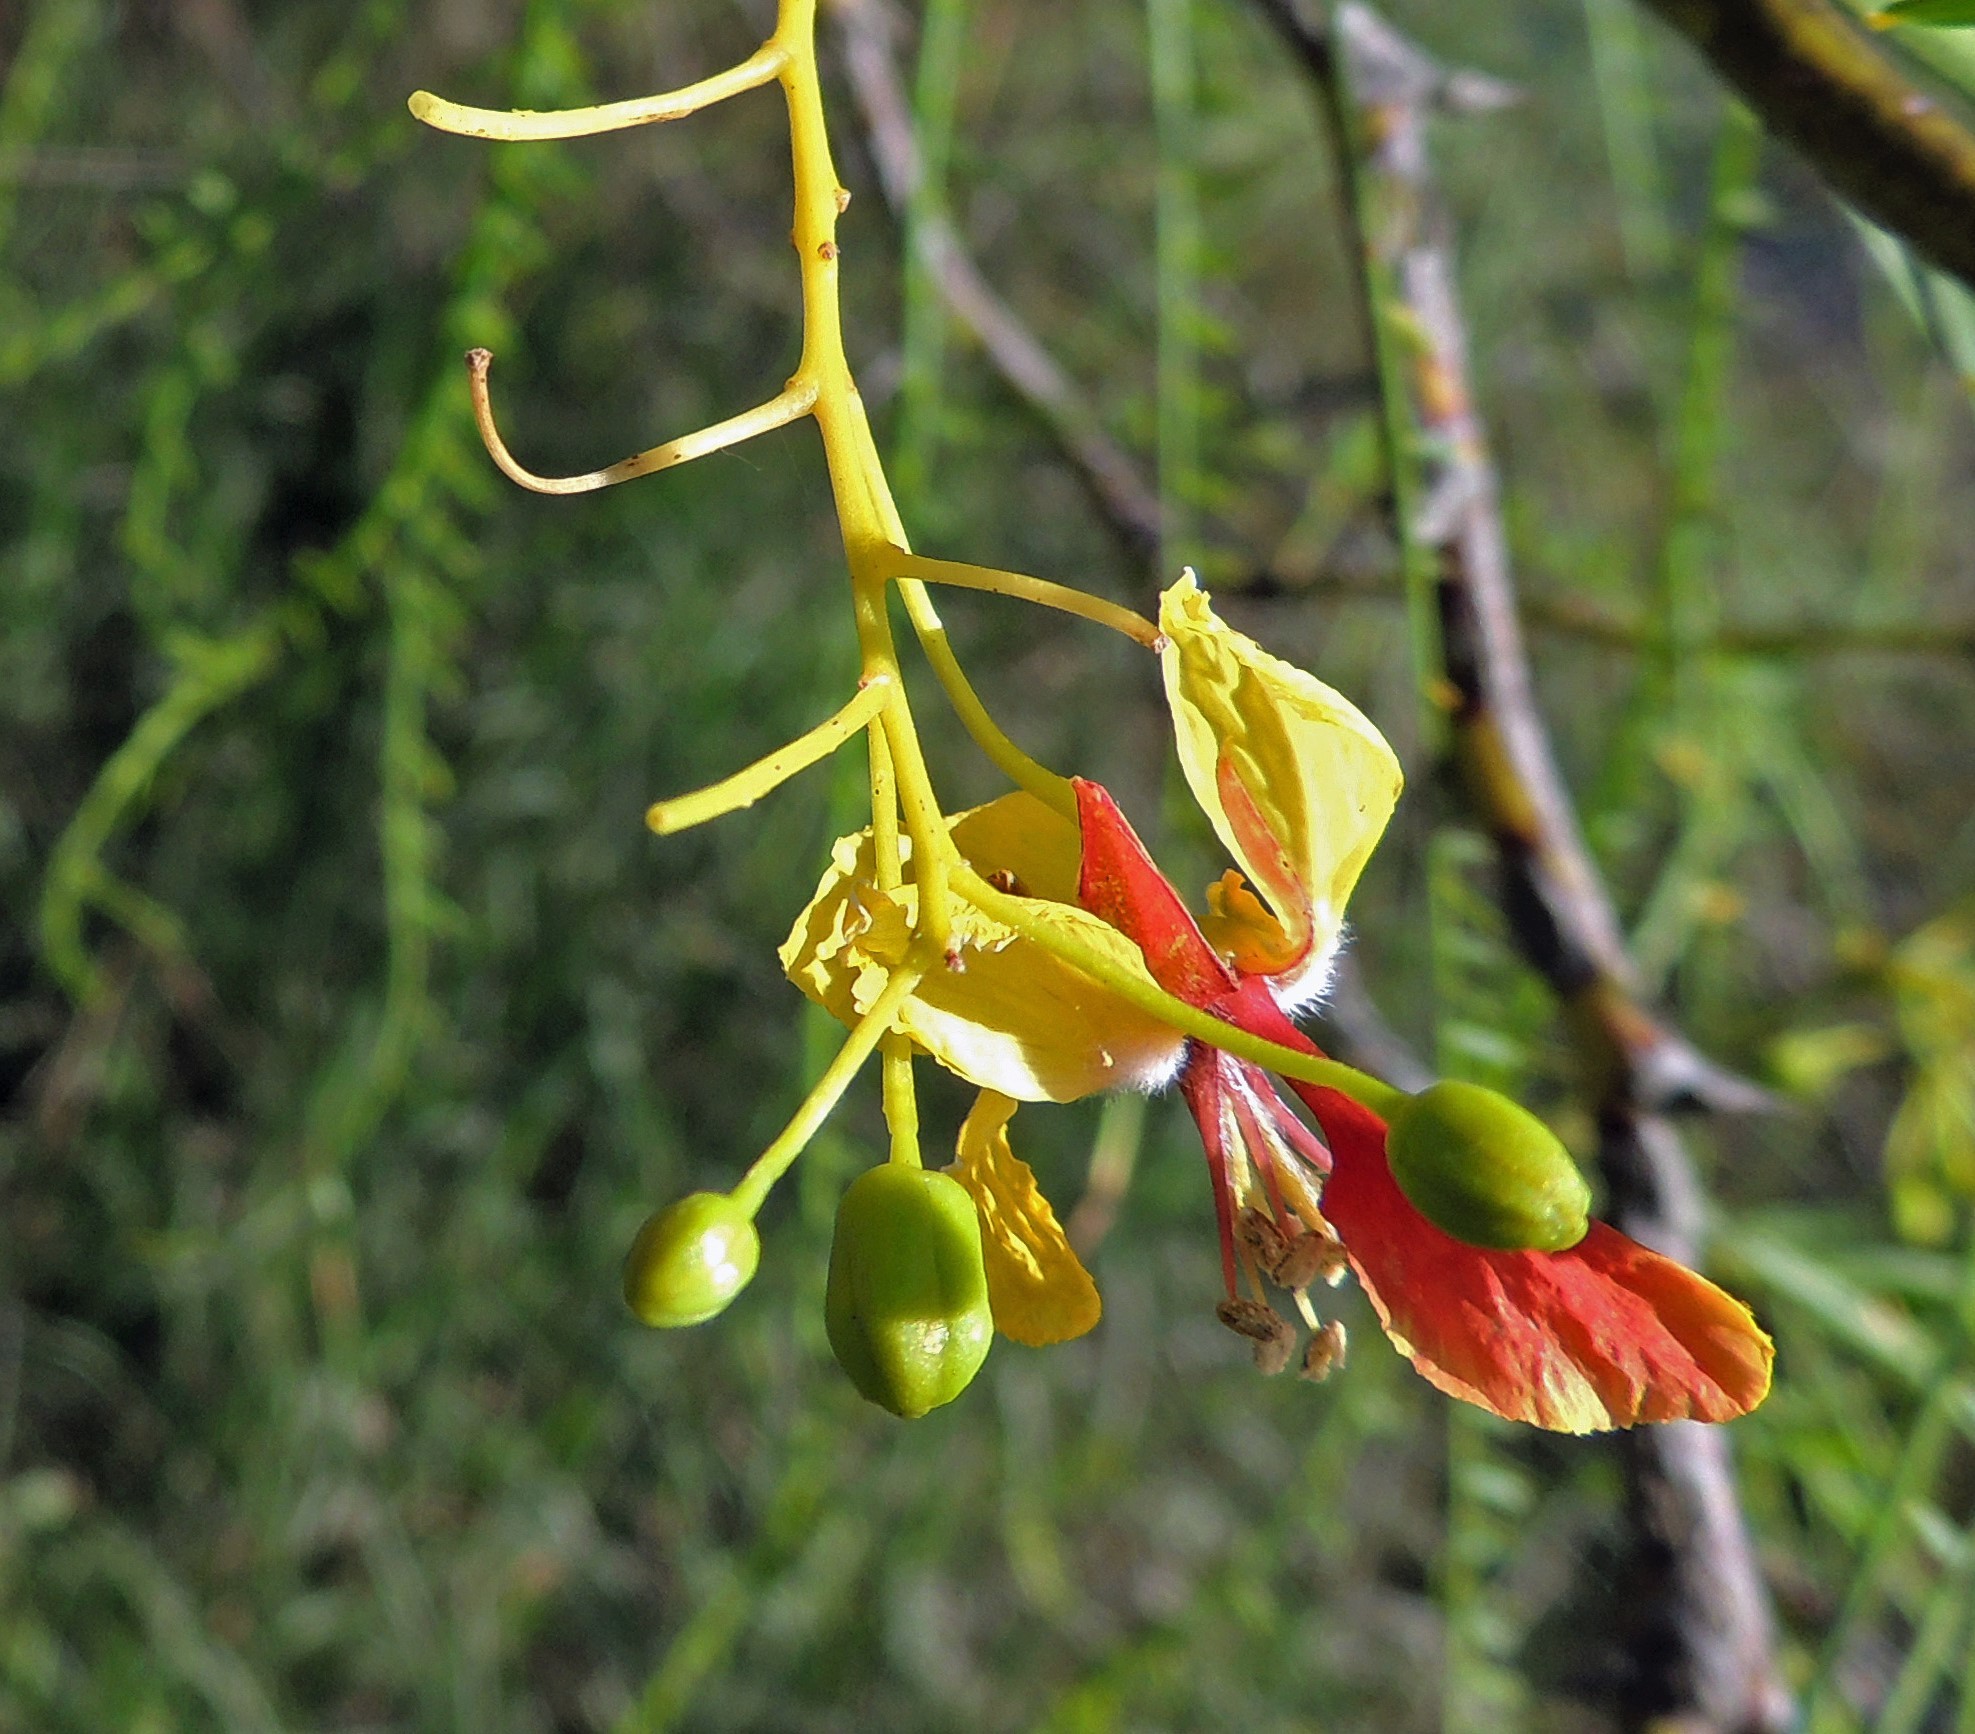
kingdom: Plantae
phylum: Tracheophyta
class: Magnoliopsida
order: Fabales
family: Fabaceae
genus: Parkinsonia
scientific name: Parkinsonia aculeata
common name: Jerusalem thorn
